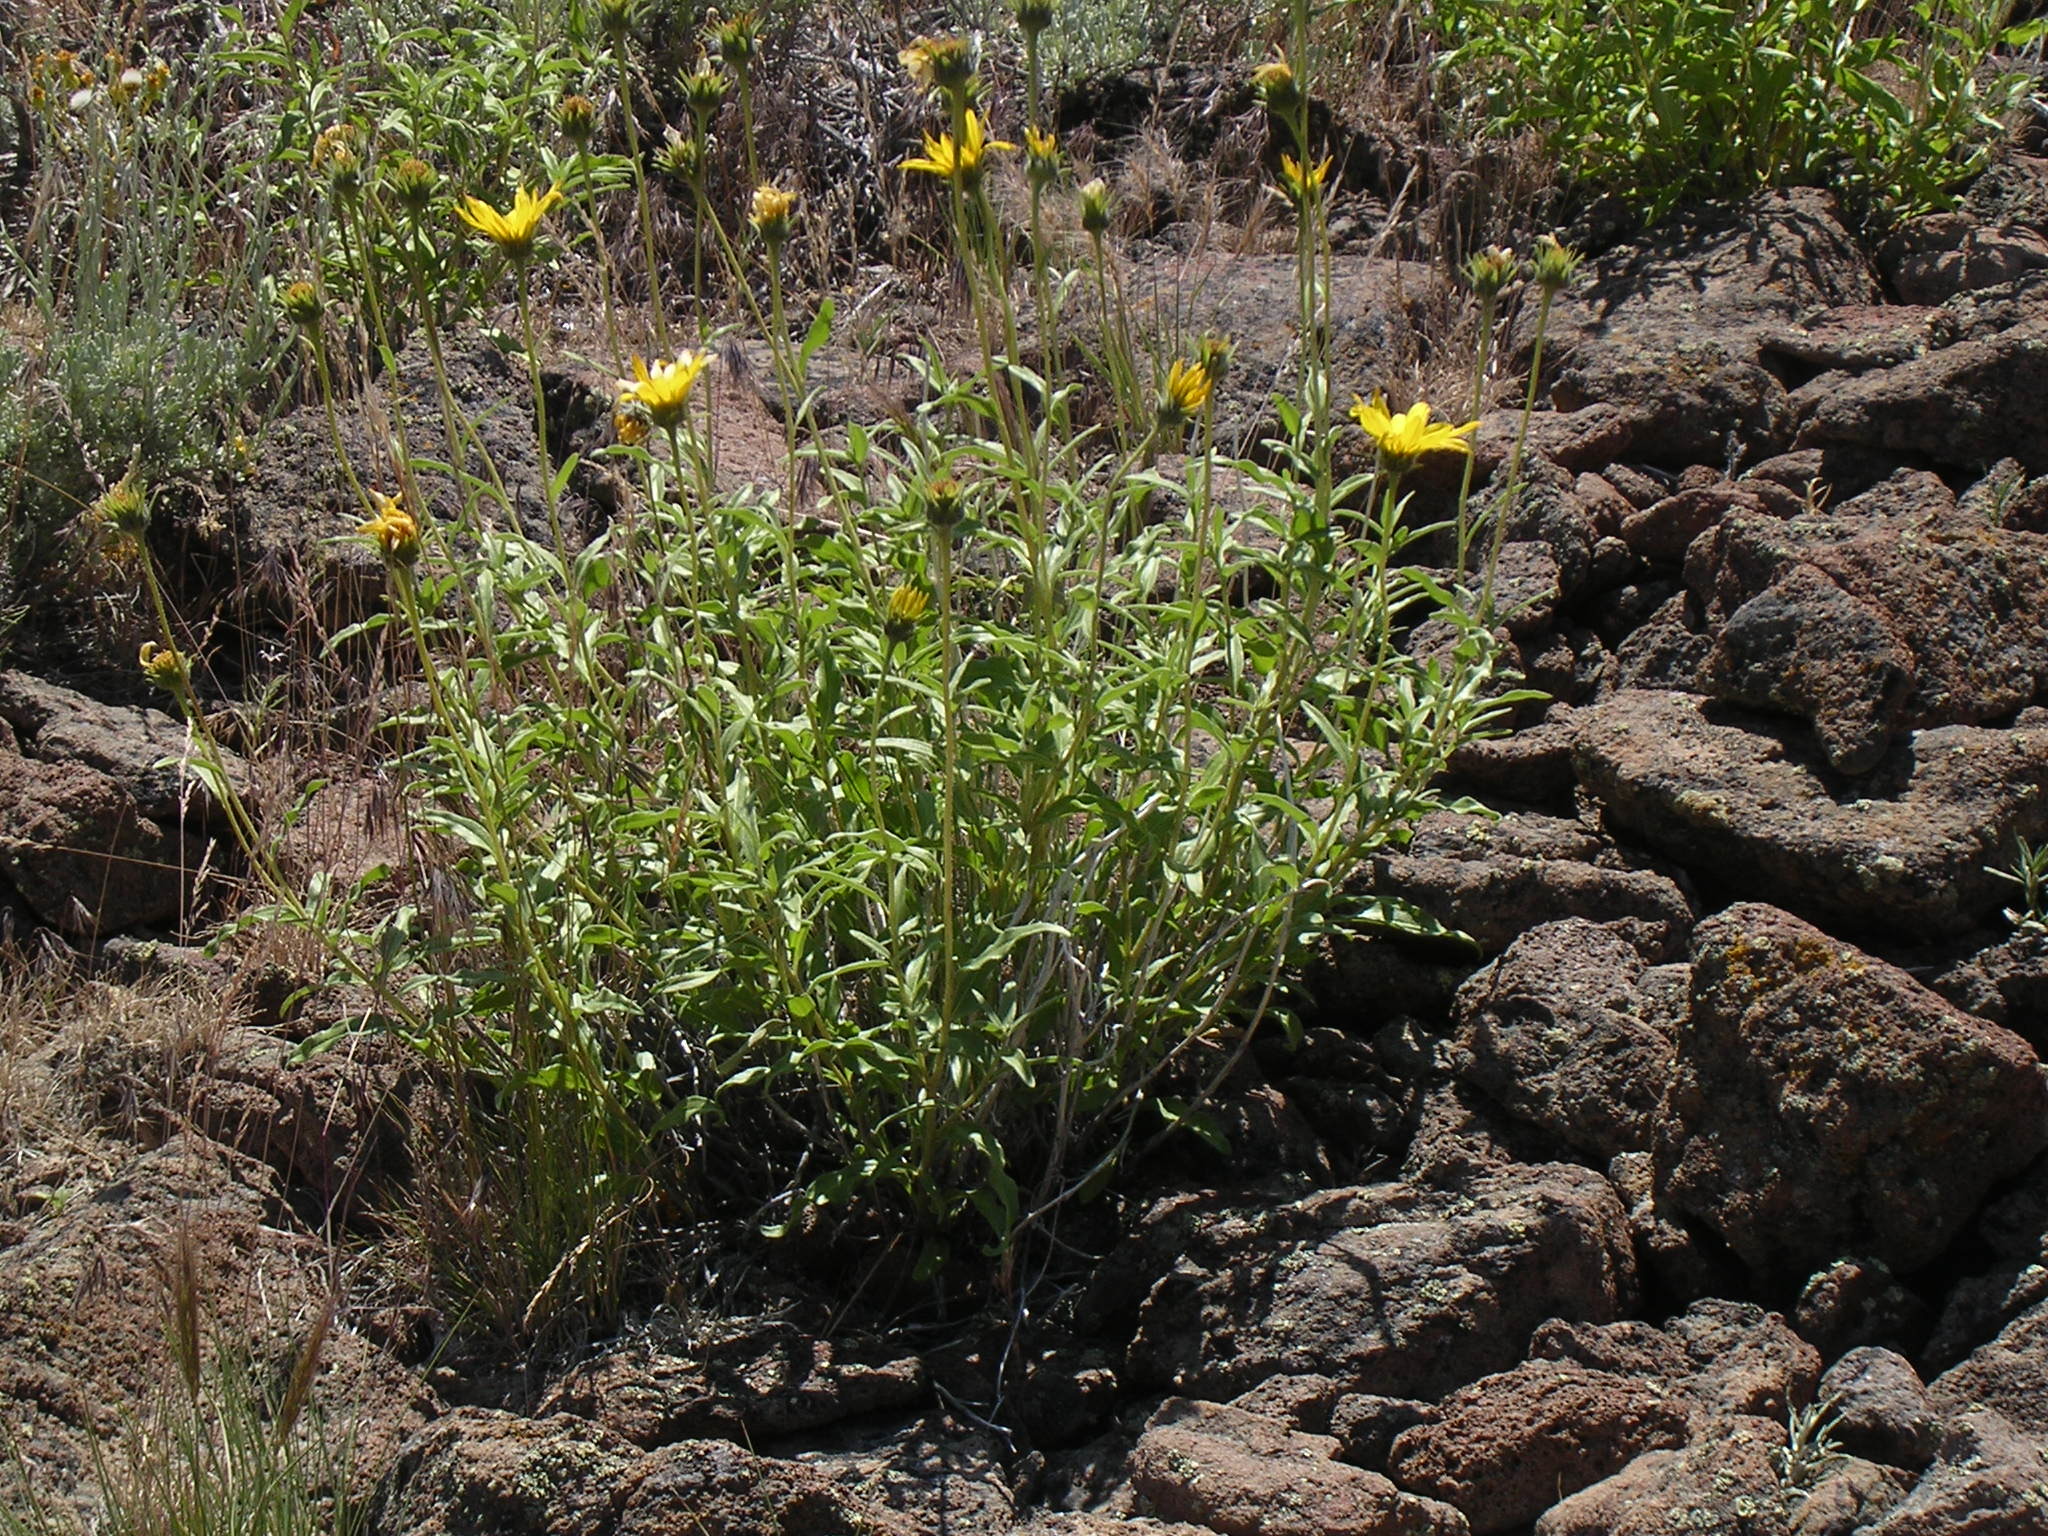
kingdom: Plantae
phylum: Tracheophyta
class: Magnoliopsida
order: Asterales
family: Asteraceae
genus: Helianthus
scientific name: Helianthus cusickii
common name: Cusick's sunflower
